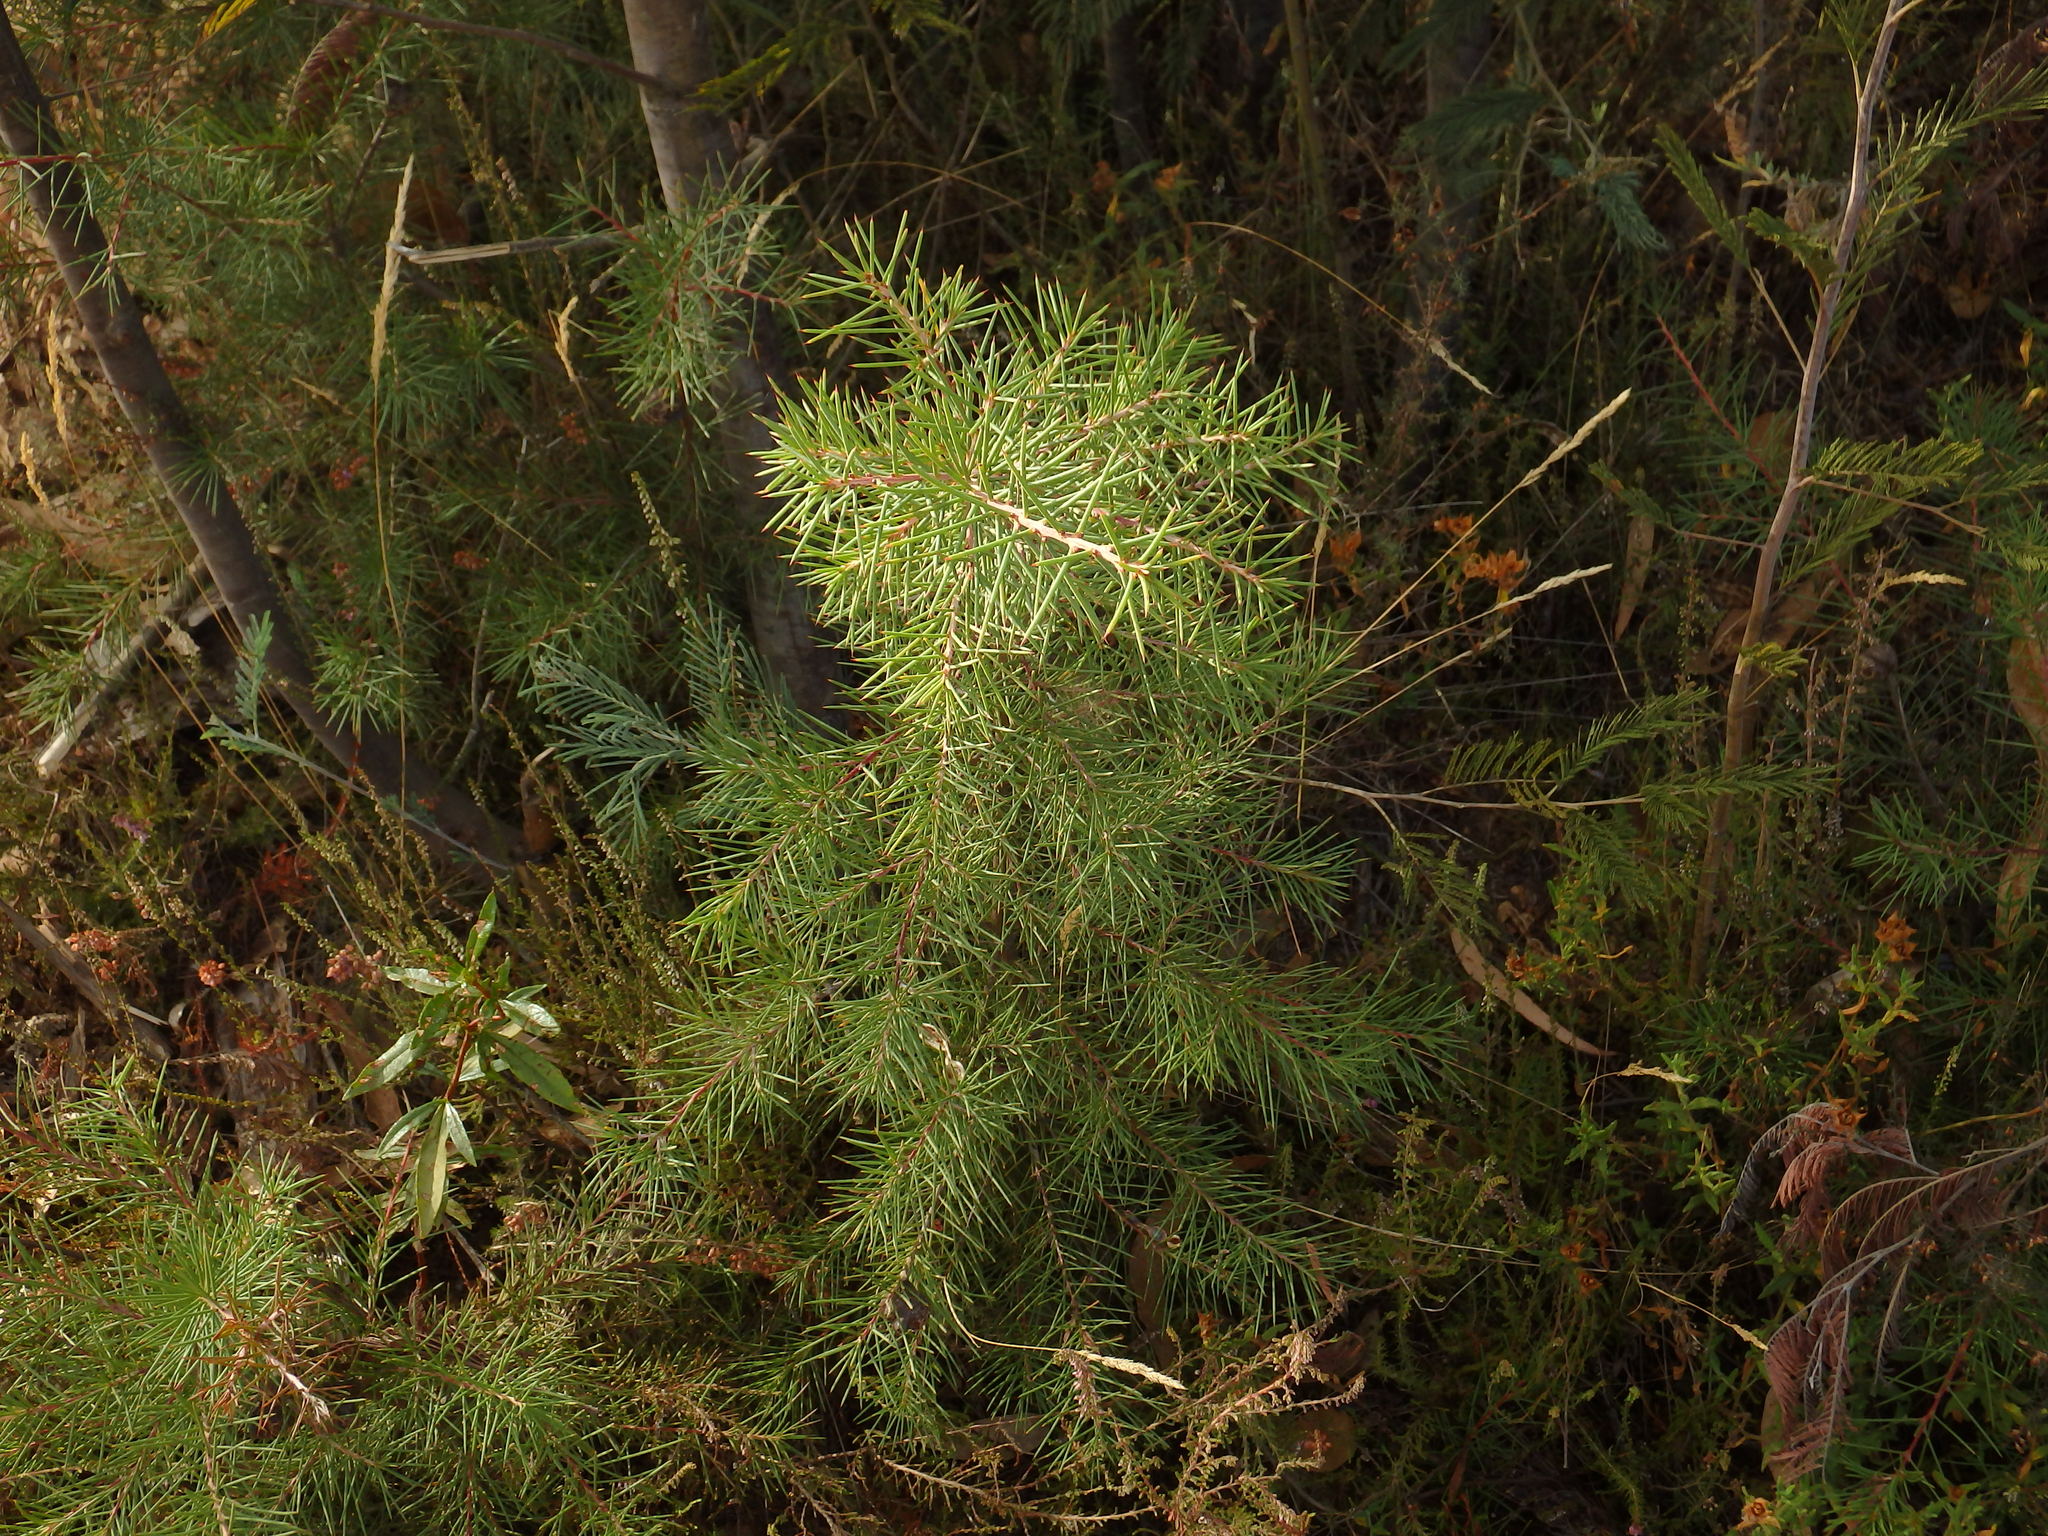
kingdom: Plantae
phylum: Tracheophyta
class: Magnoliopsida
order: Proteales
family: Proteaceae
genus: Hakea
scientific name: Hakea decurrens
